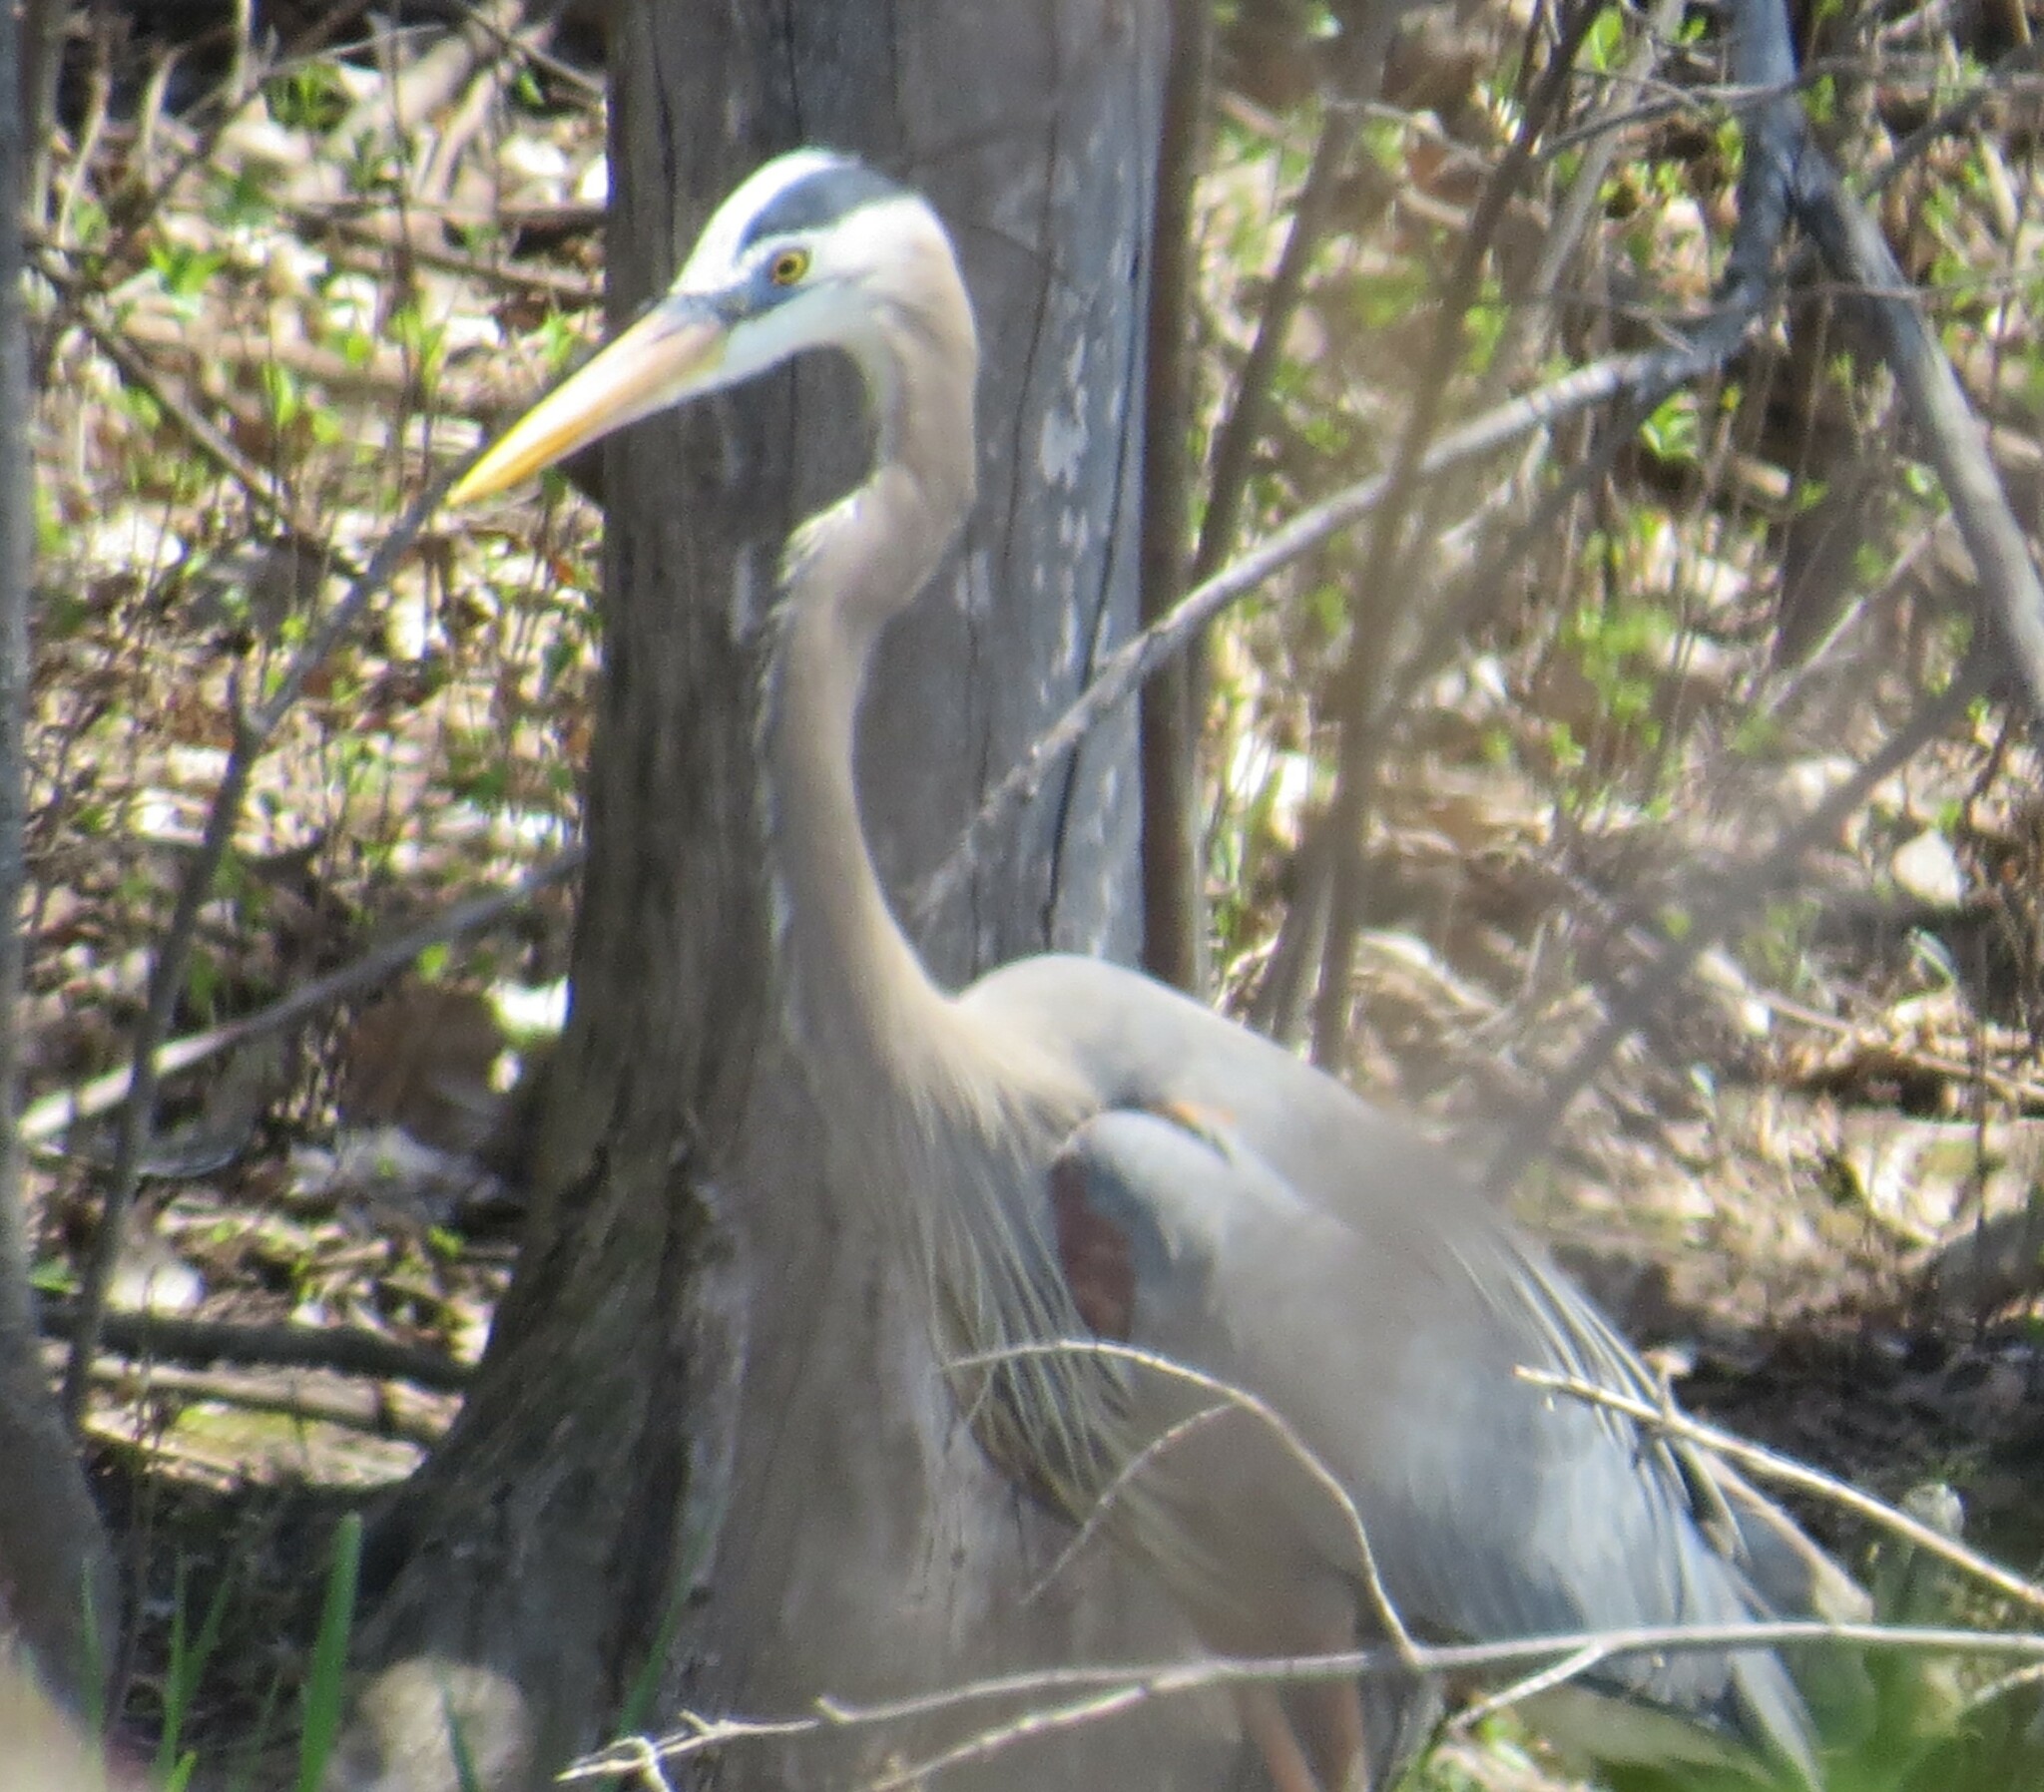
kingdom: Animalia
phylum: Chordata
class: Aves
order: Pelecaniformes
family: Ardeidae
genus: Ardea
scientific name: Ardea herodias
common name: Great blue heron
